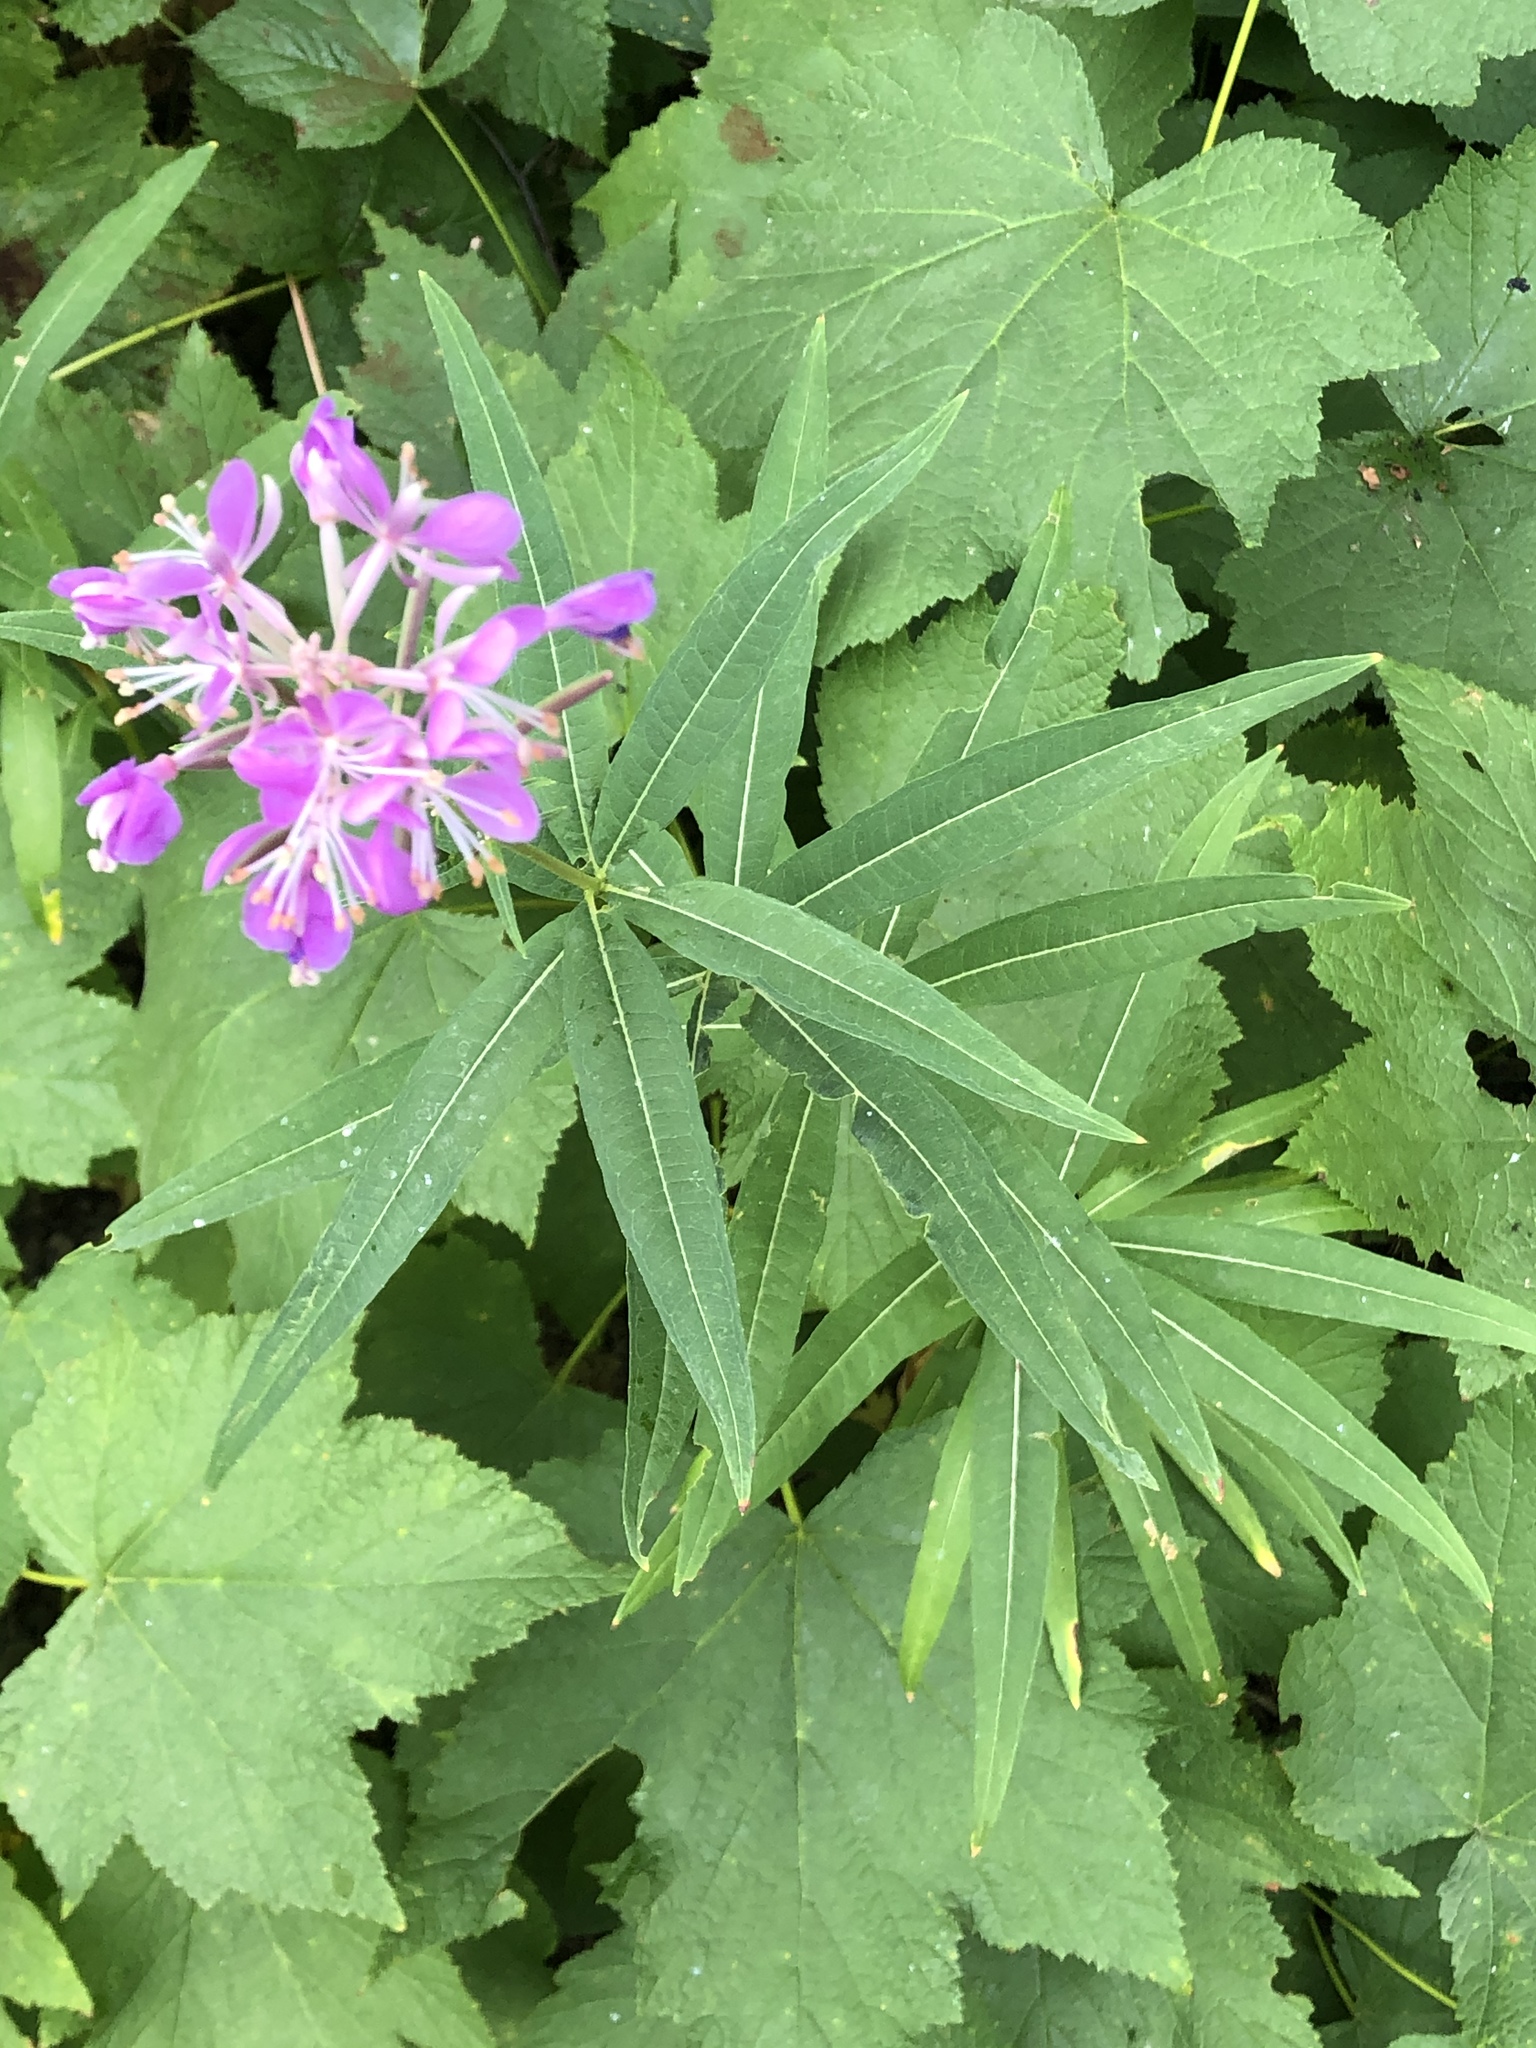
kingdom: Plantae
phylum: Tracheophyta
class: Magnoliopsida
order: Myrtales
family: Onagraceae
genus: Chamaenerion
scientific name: Chamaenerion angustifolium
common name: Fireweed
